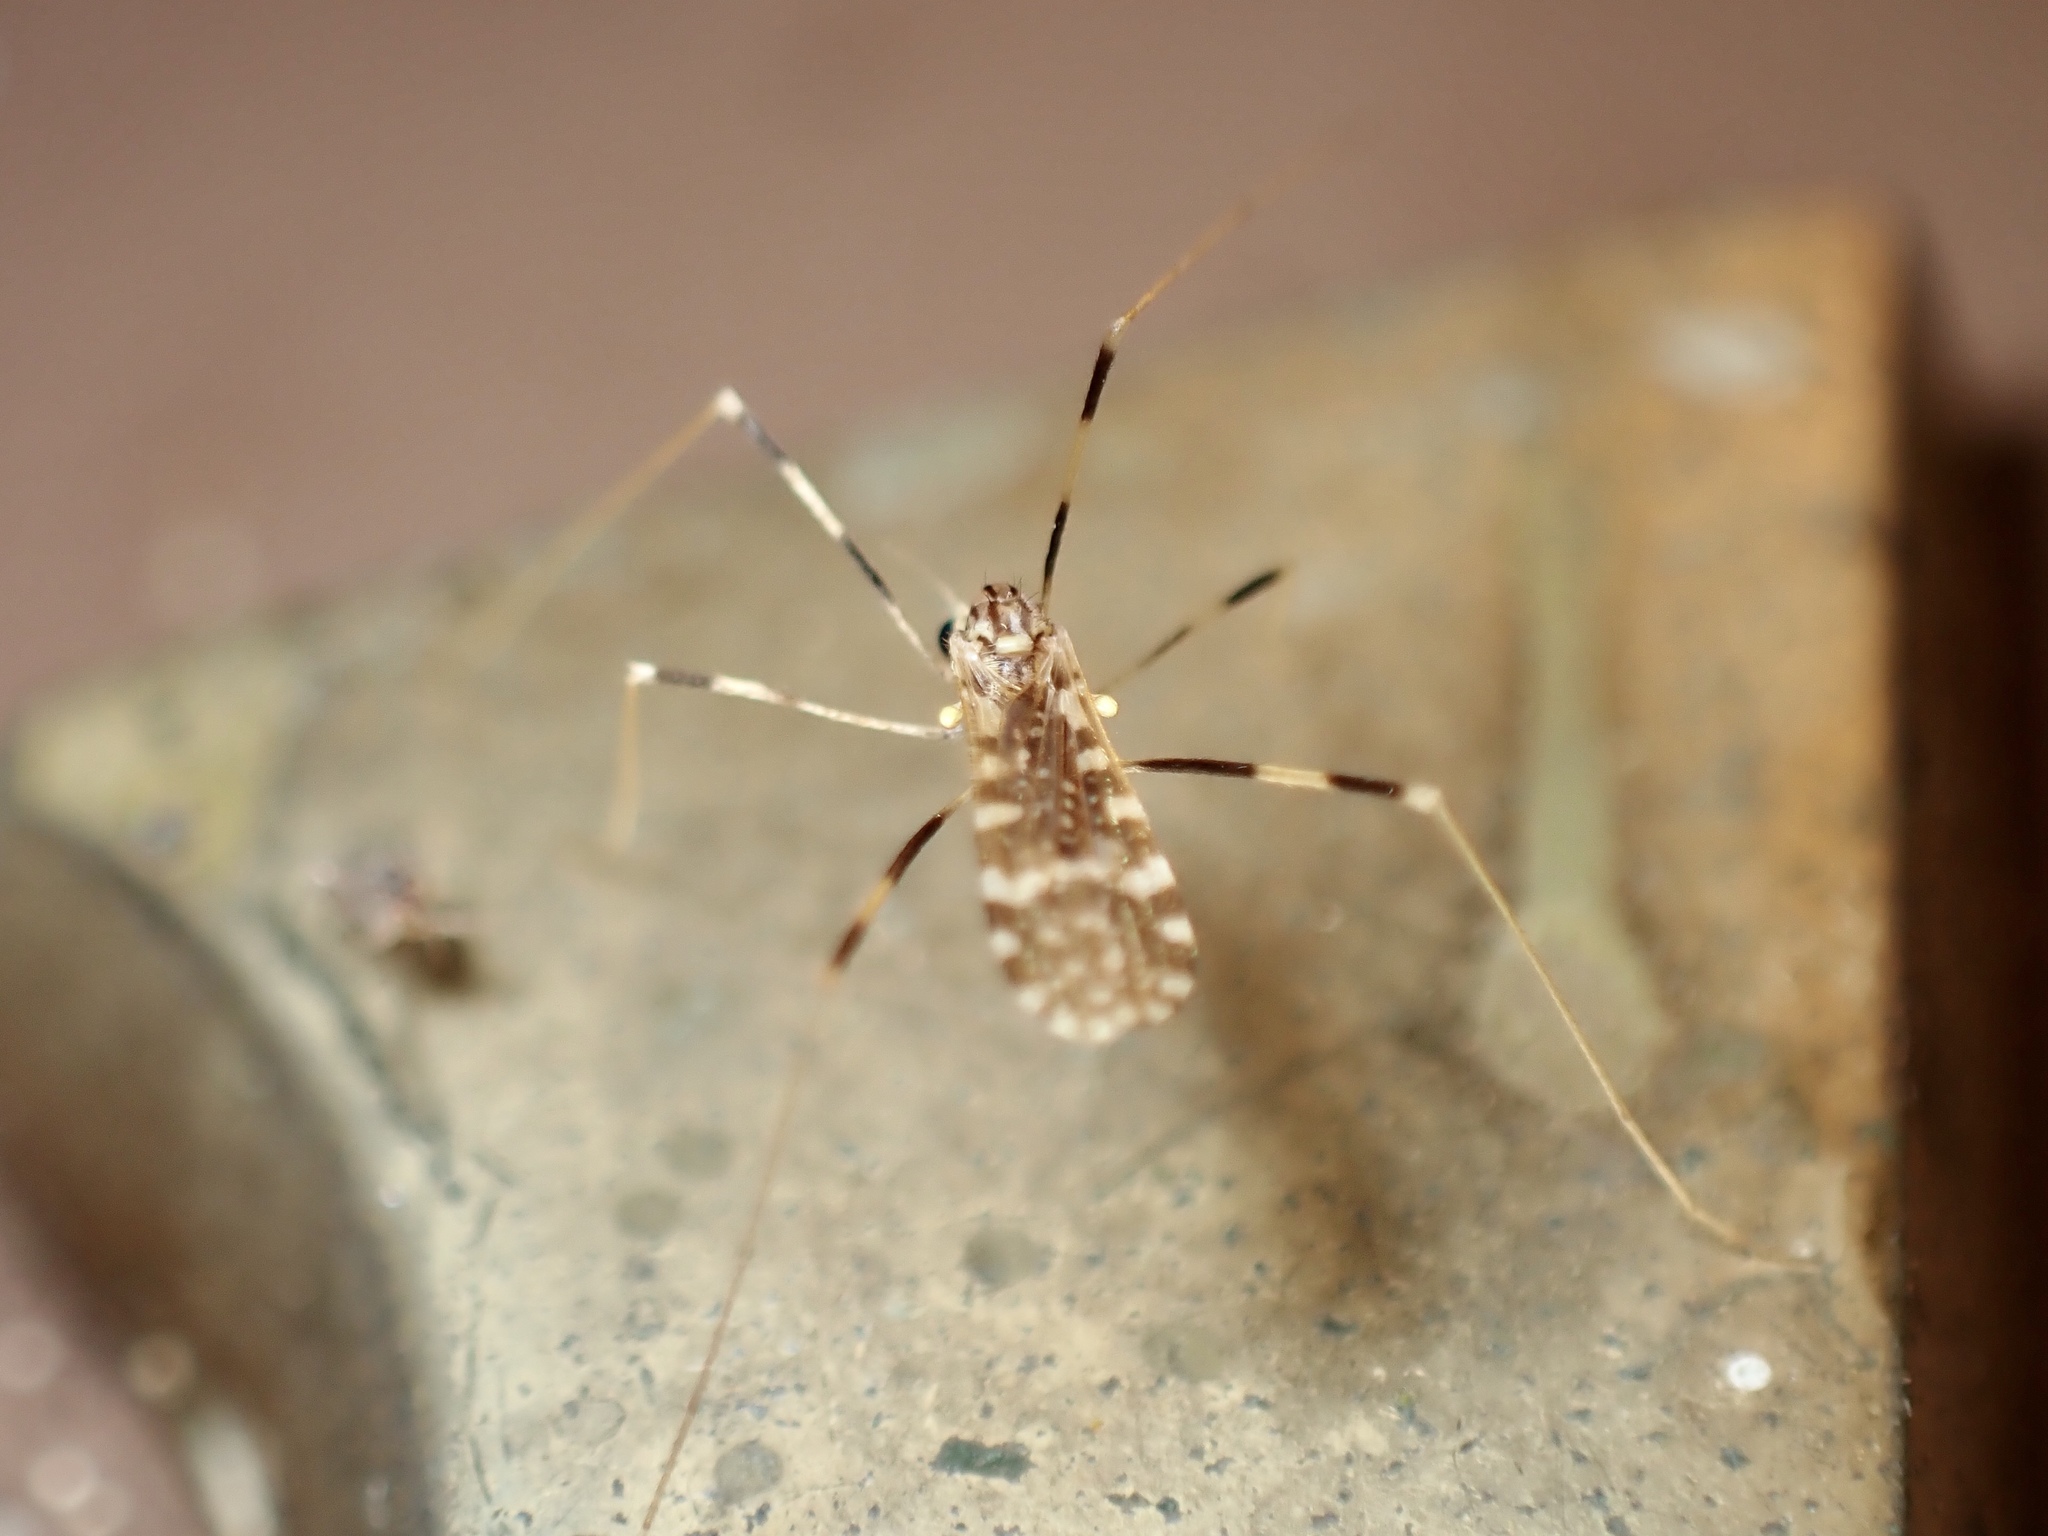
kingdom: Animalia
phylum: Arthropoda
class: Insecta
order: Diptera
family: Limoniidae
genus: Erioptera
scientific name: Erioptera caliptera
